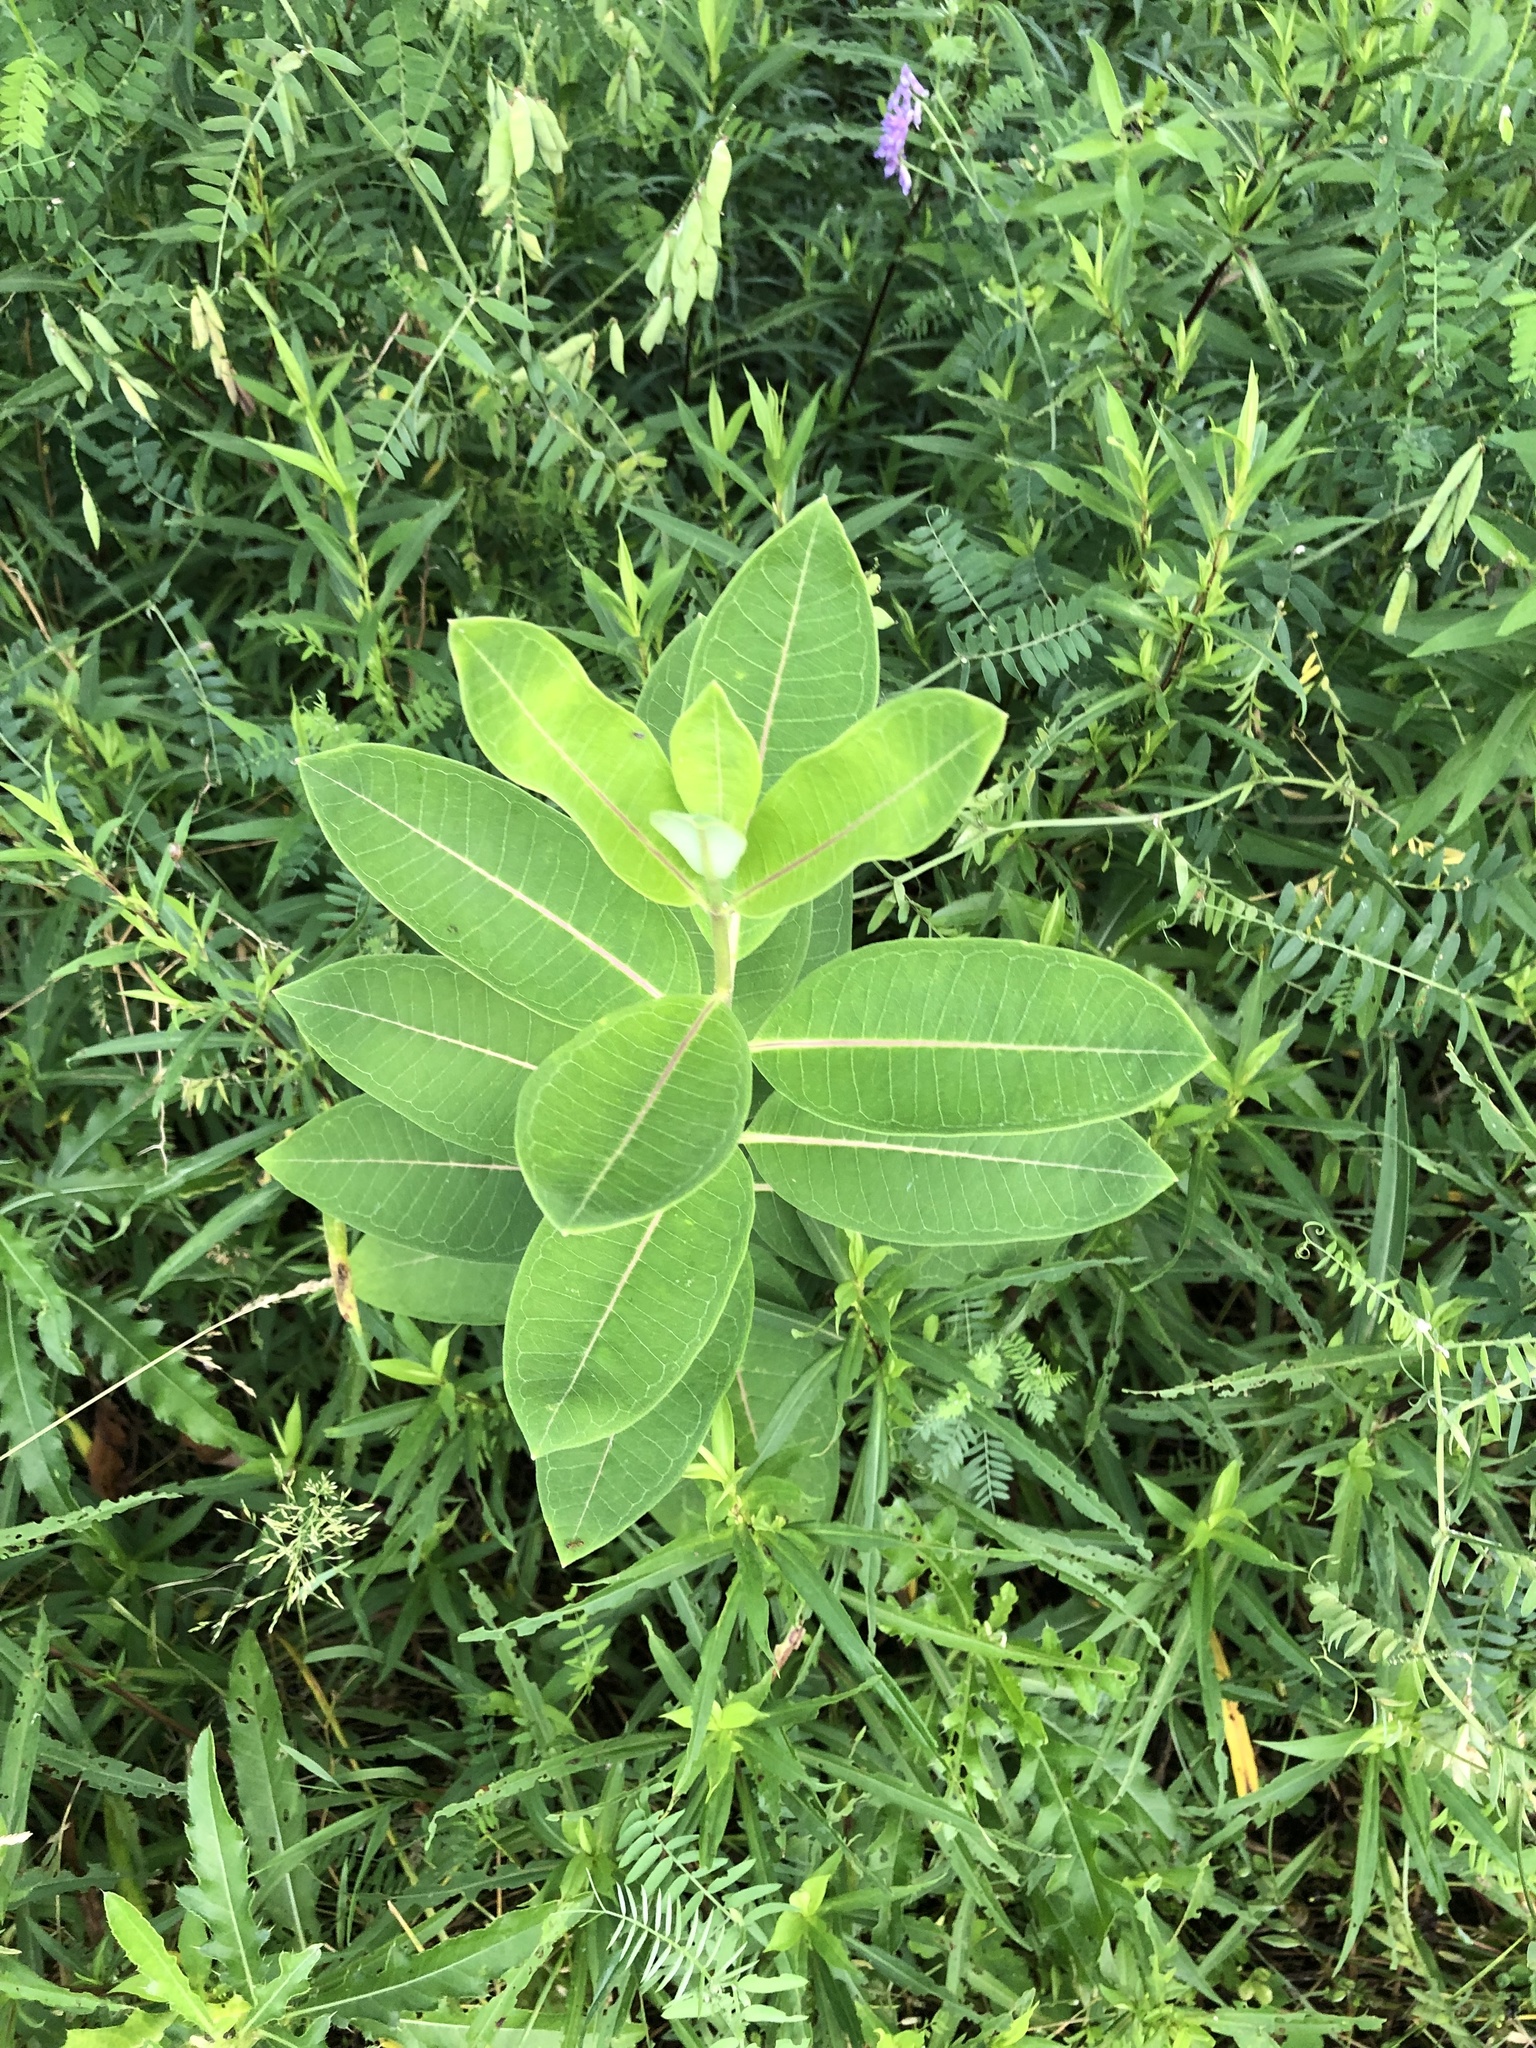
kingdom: Plantae
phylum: Tracheophyta
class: Magnoliopsida
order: Gentianales
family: Apocynaceae
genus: Asclepias
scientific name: Asclepias syriaca
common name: Common milkweed
